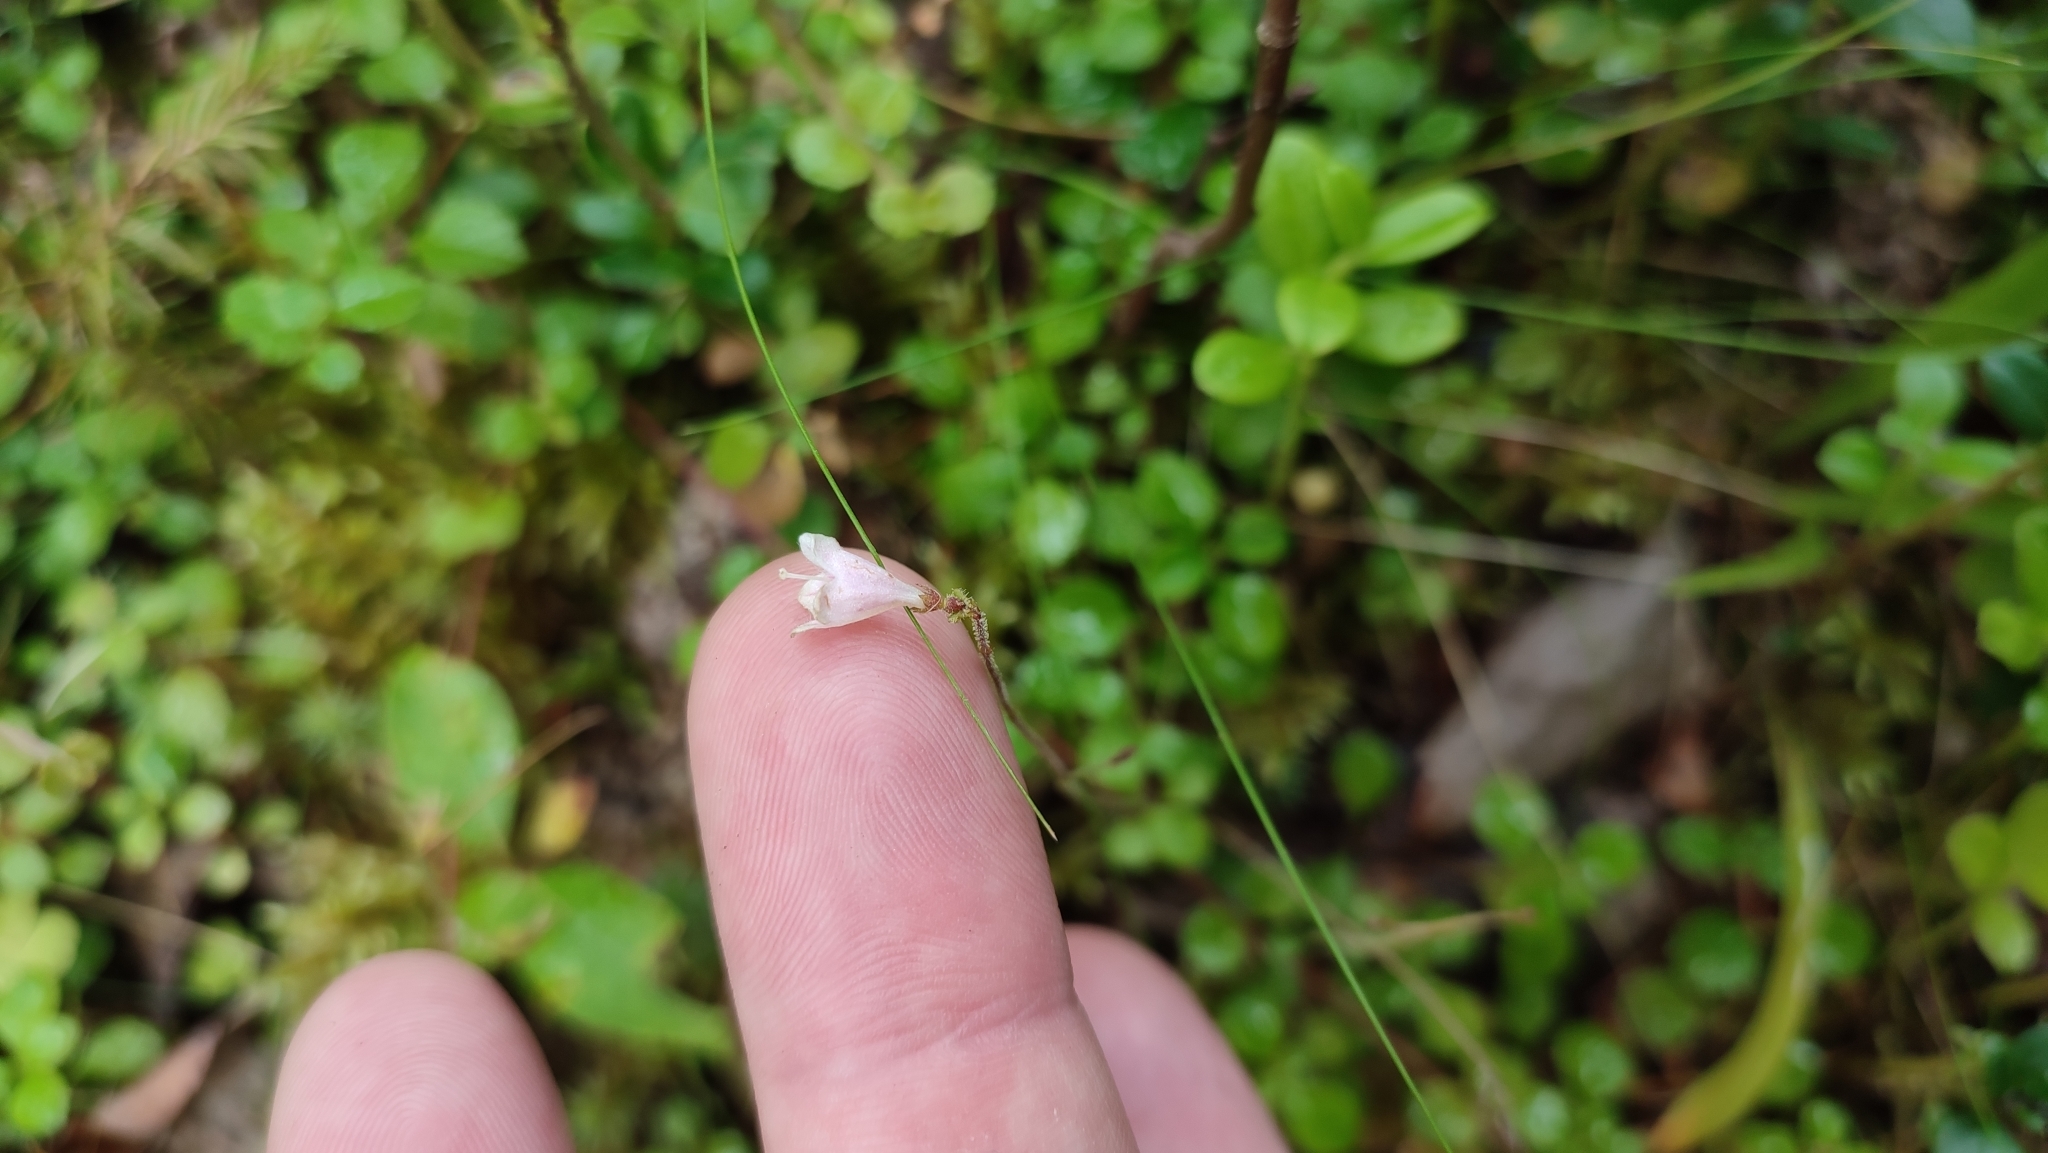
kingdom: Plantae
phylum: Tracheophyta
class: Magnoliopsida
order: Dipsacales
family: Caprifoliaceae
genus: Linnaea
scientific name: Linnaea borealis
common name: Twinflower
